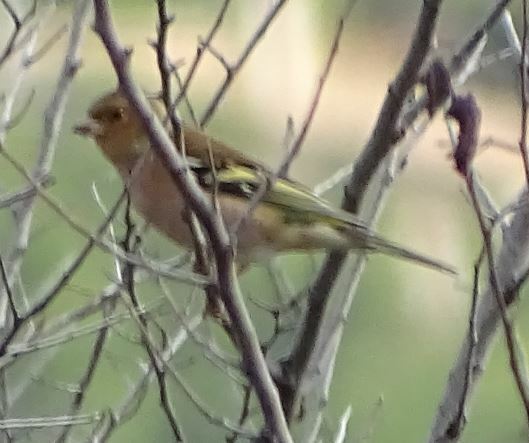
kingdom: Animalia
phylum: Chordata
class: Aves
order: Passeriformes
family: Fringillidae
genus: Fringilla
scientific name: Fringilla coelebs
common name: Common chaffinch
